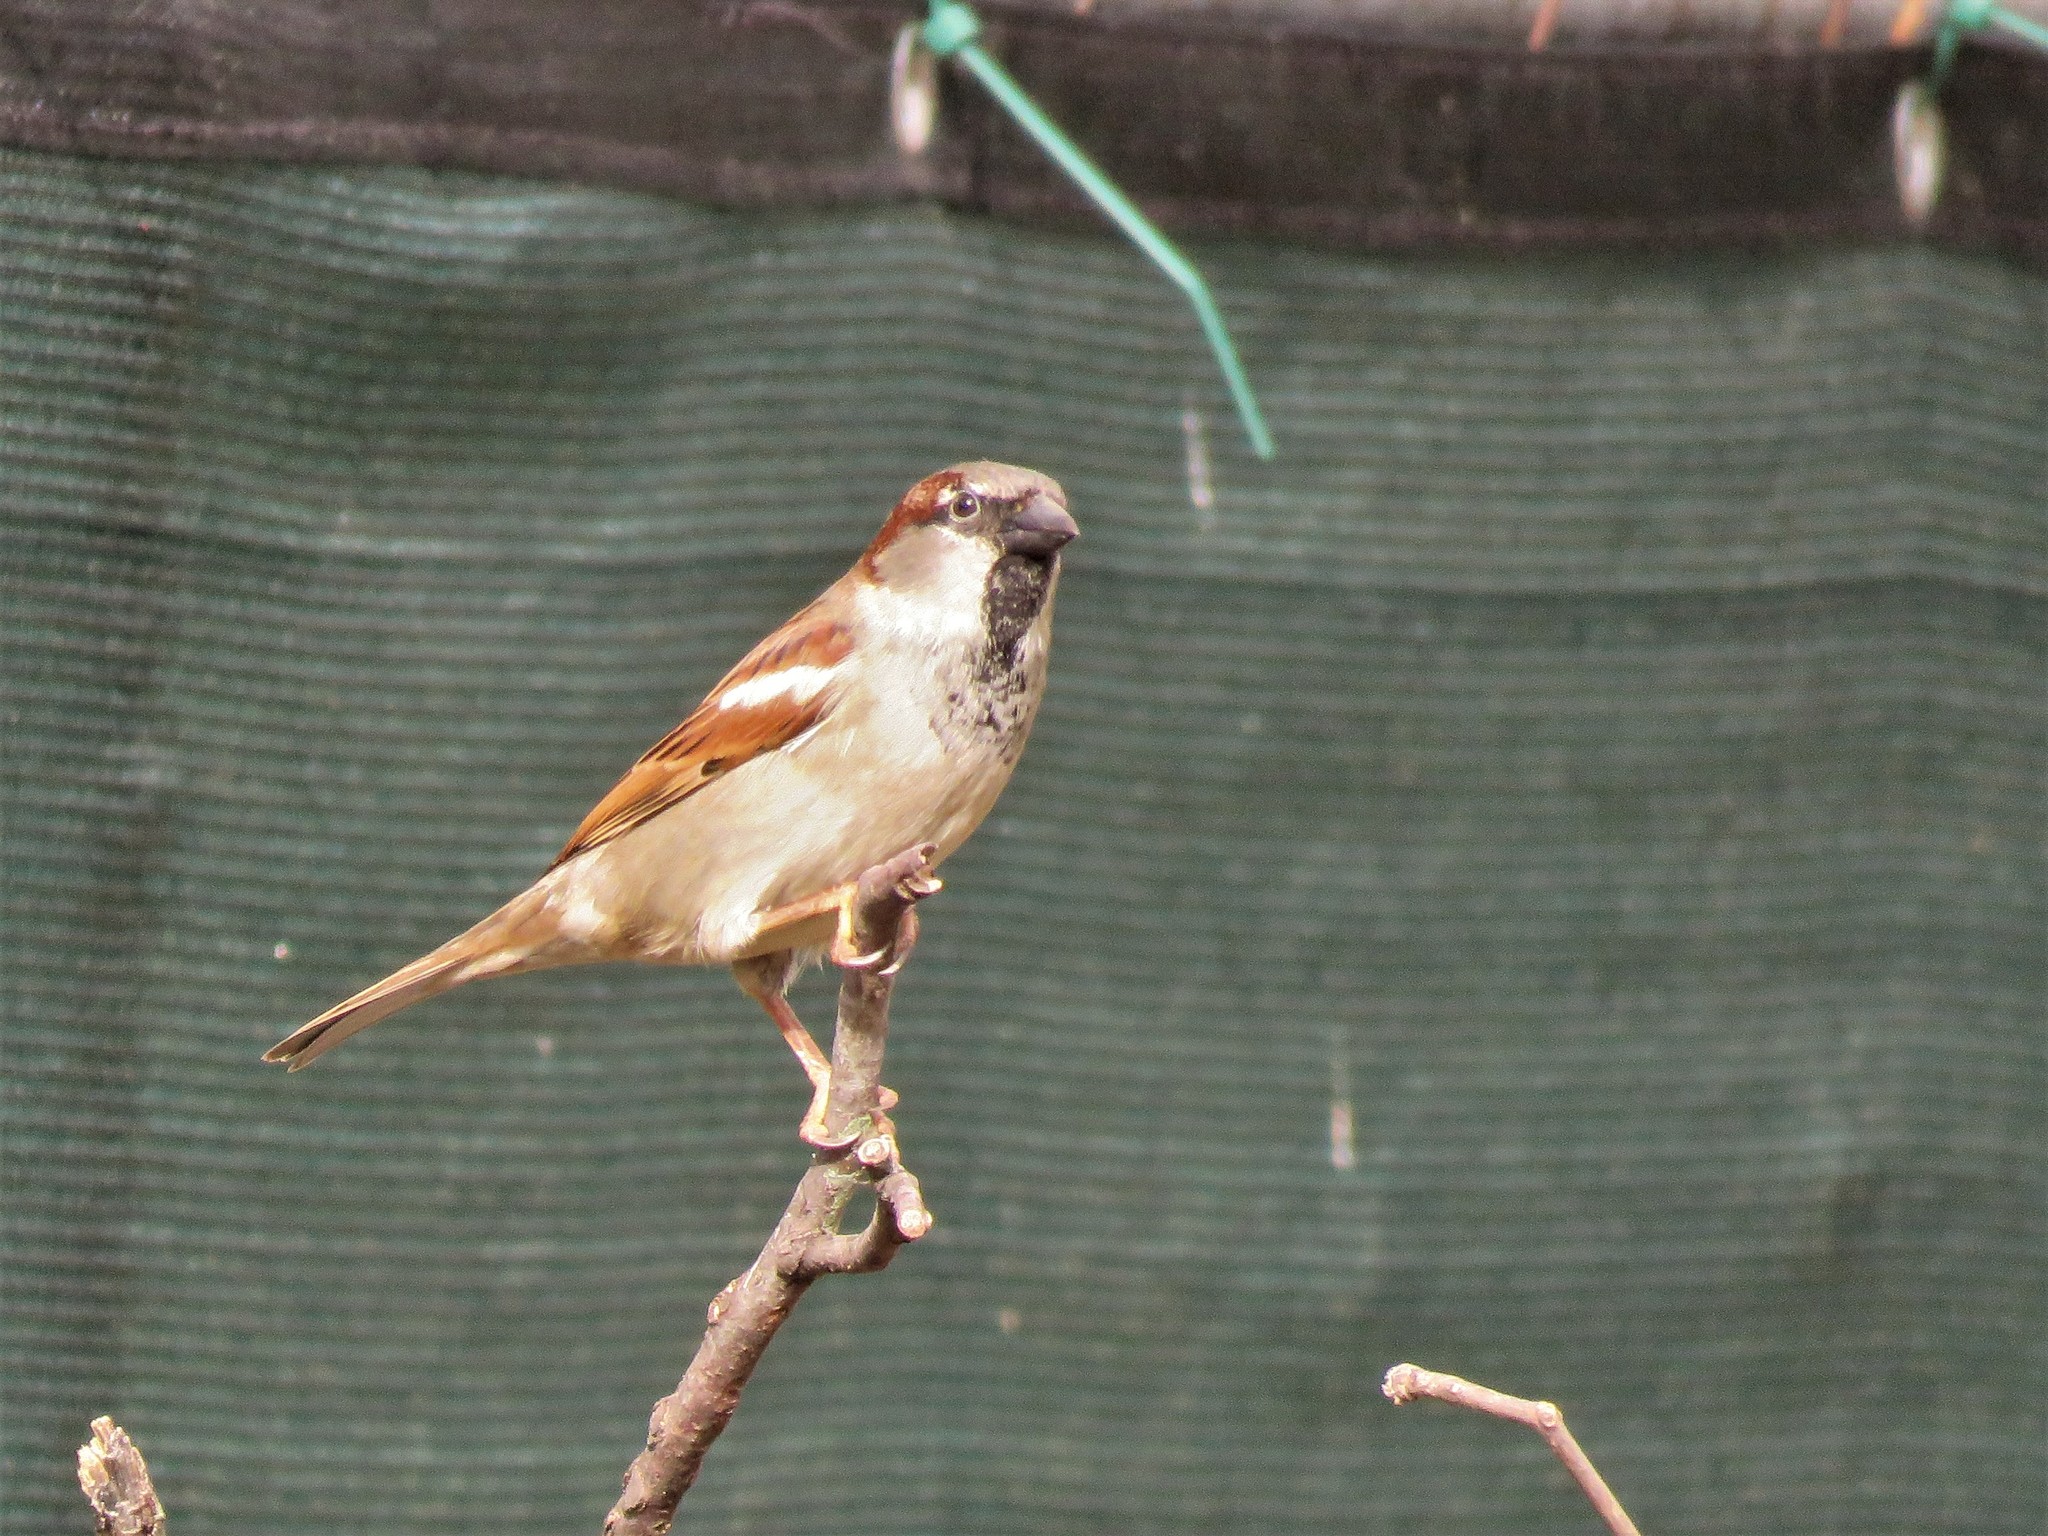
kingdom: Animalia
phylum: Chordata
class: Aves
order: Passeriformes
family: Passeridae
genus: Passer
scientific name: Passer domesticus
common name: House sparrow
